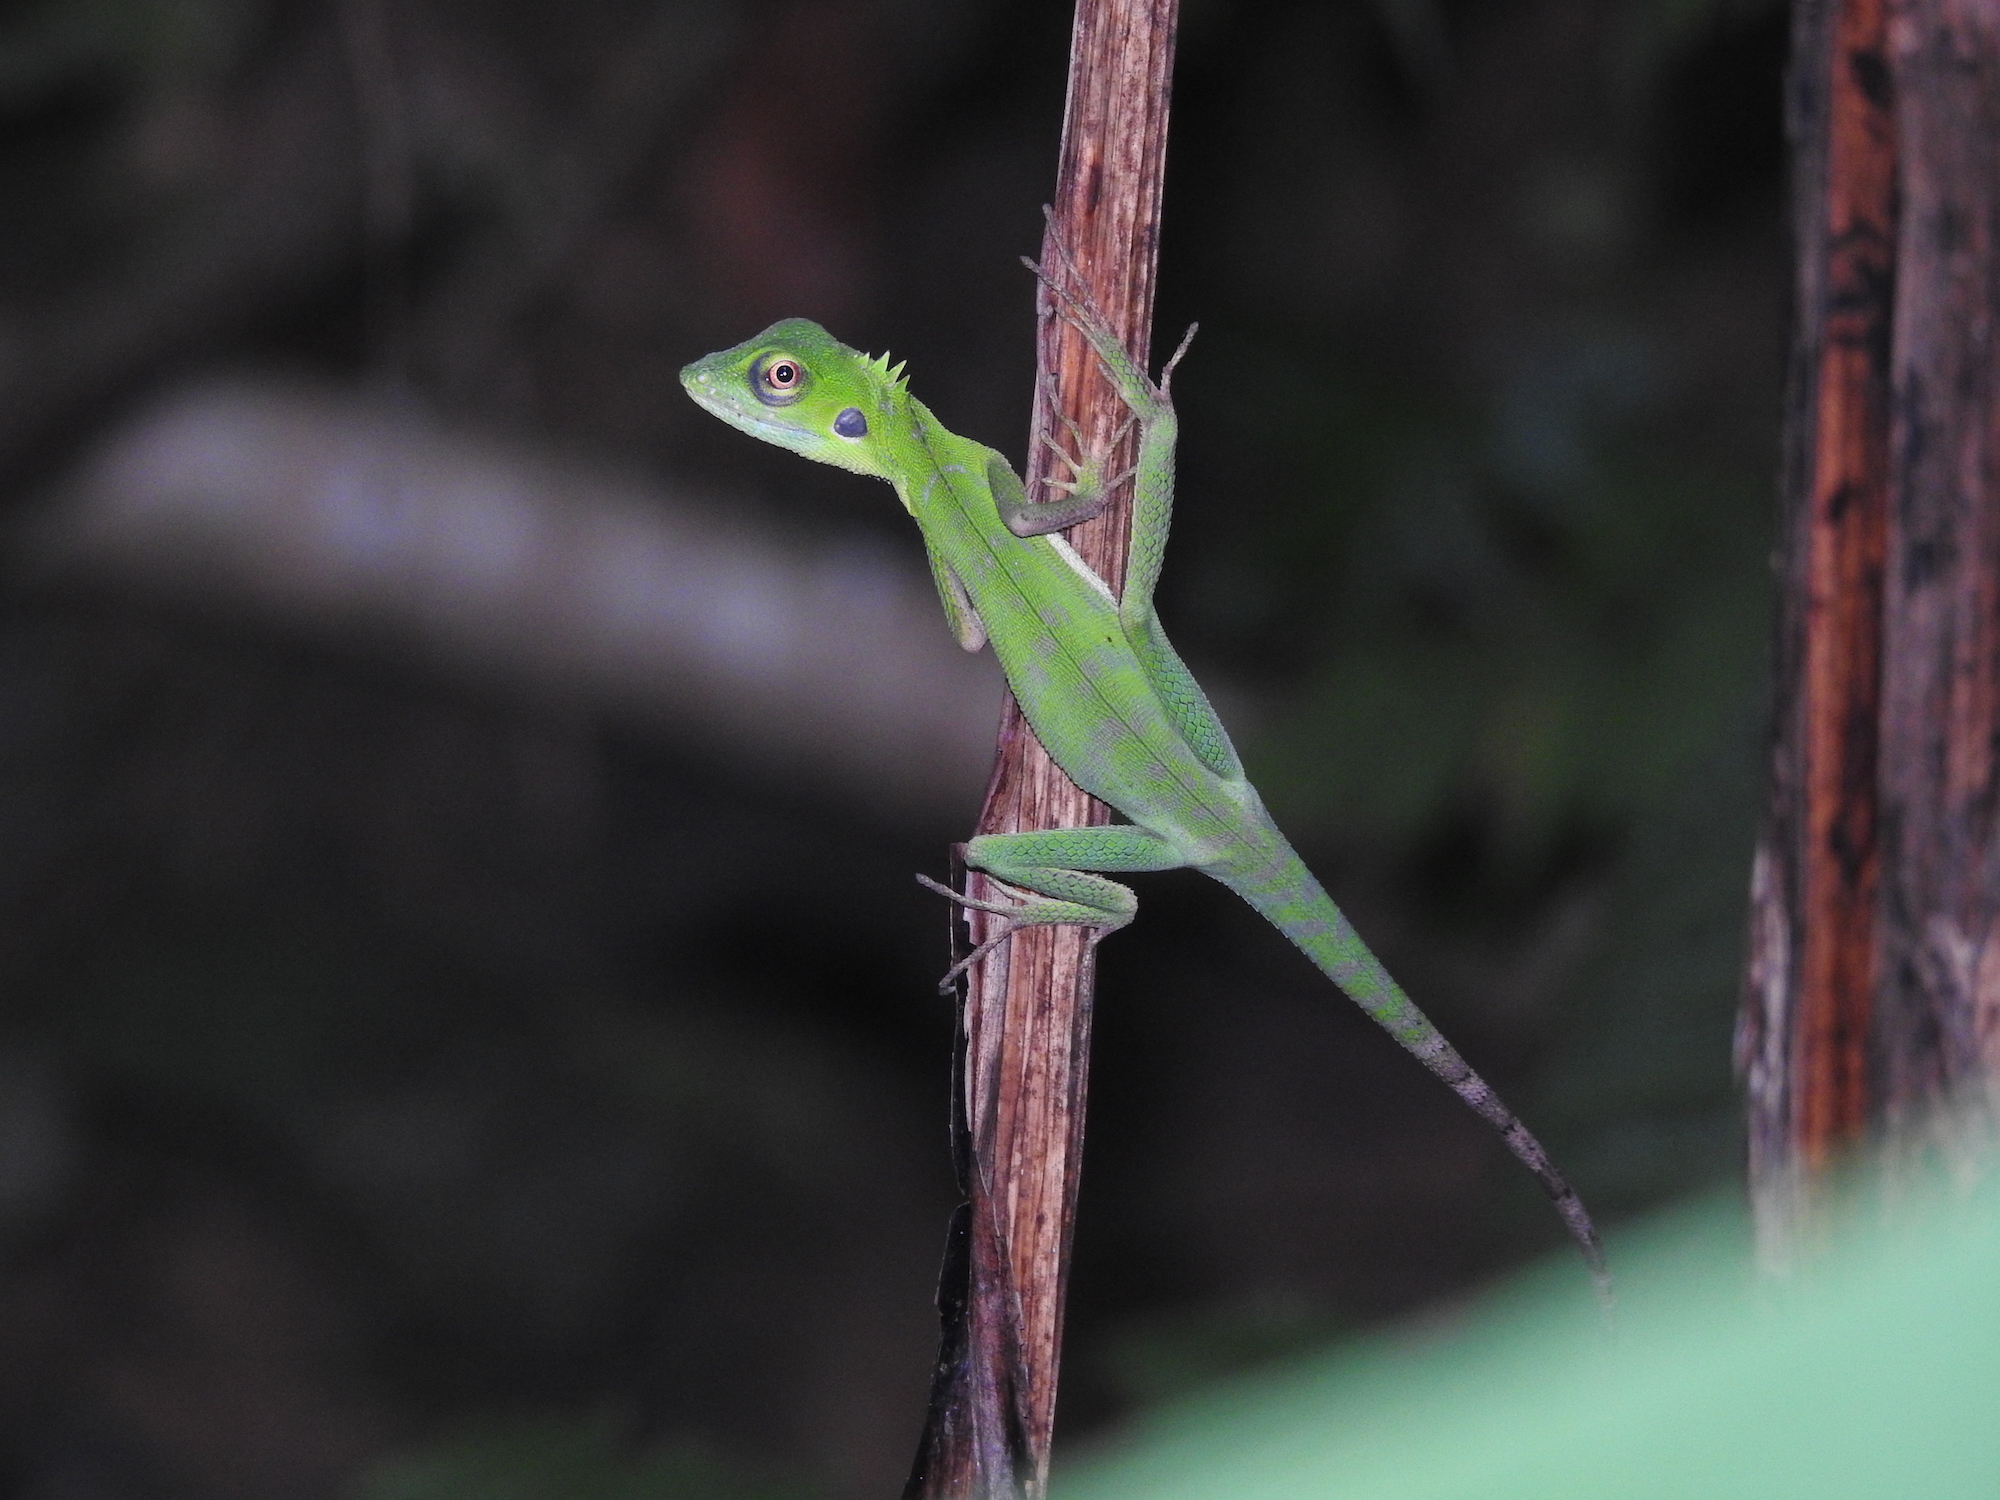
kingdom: Animalia
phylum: Chordata
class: Squamata
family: Agamidae
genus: Bronchocela
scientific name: Bronchocela cristatella
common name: Green crested lizard
